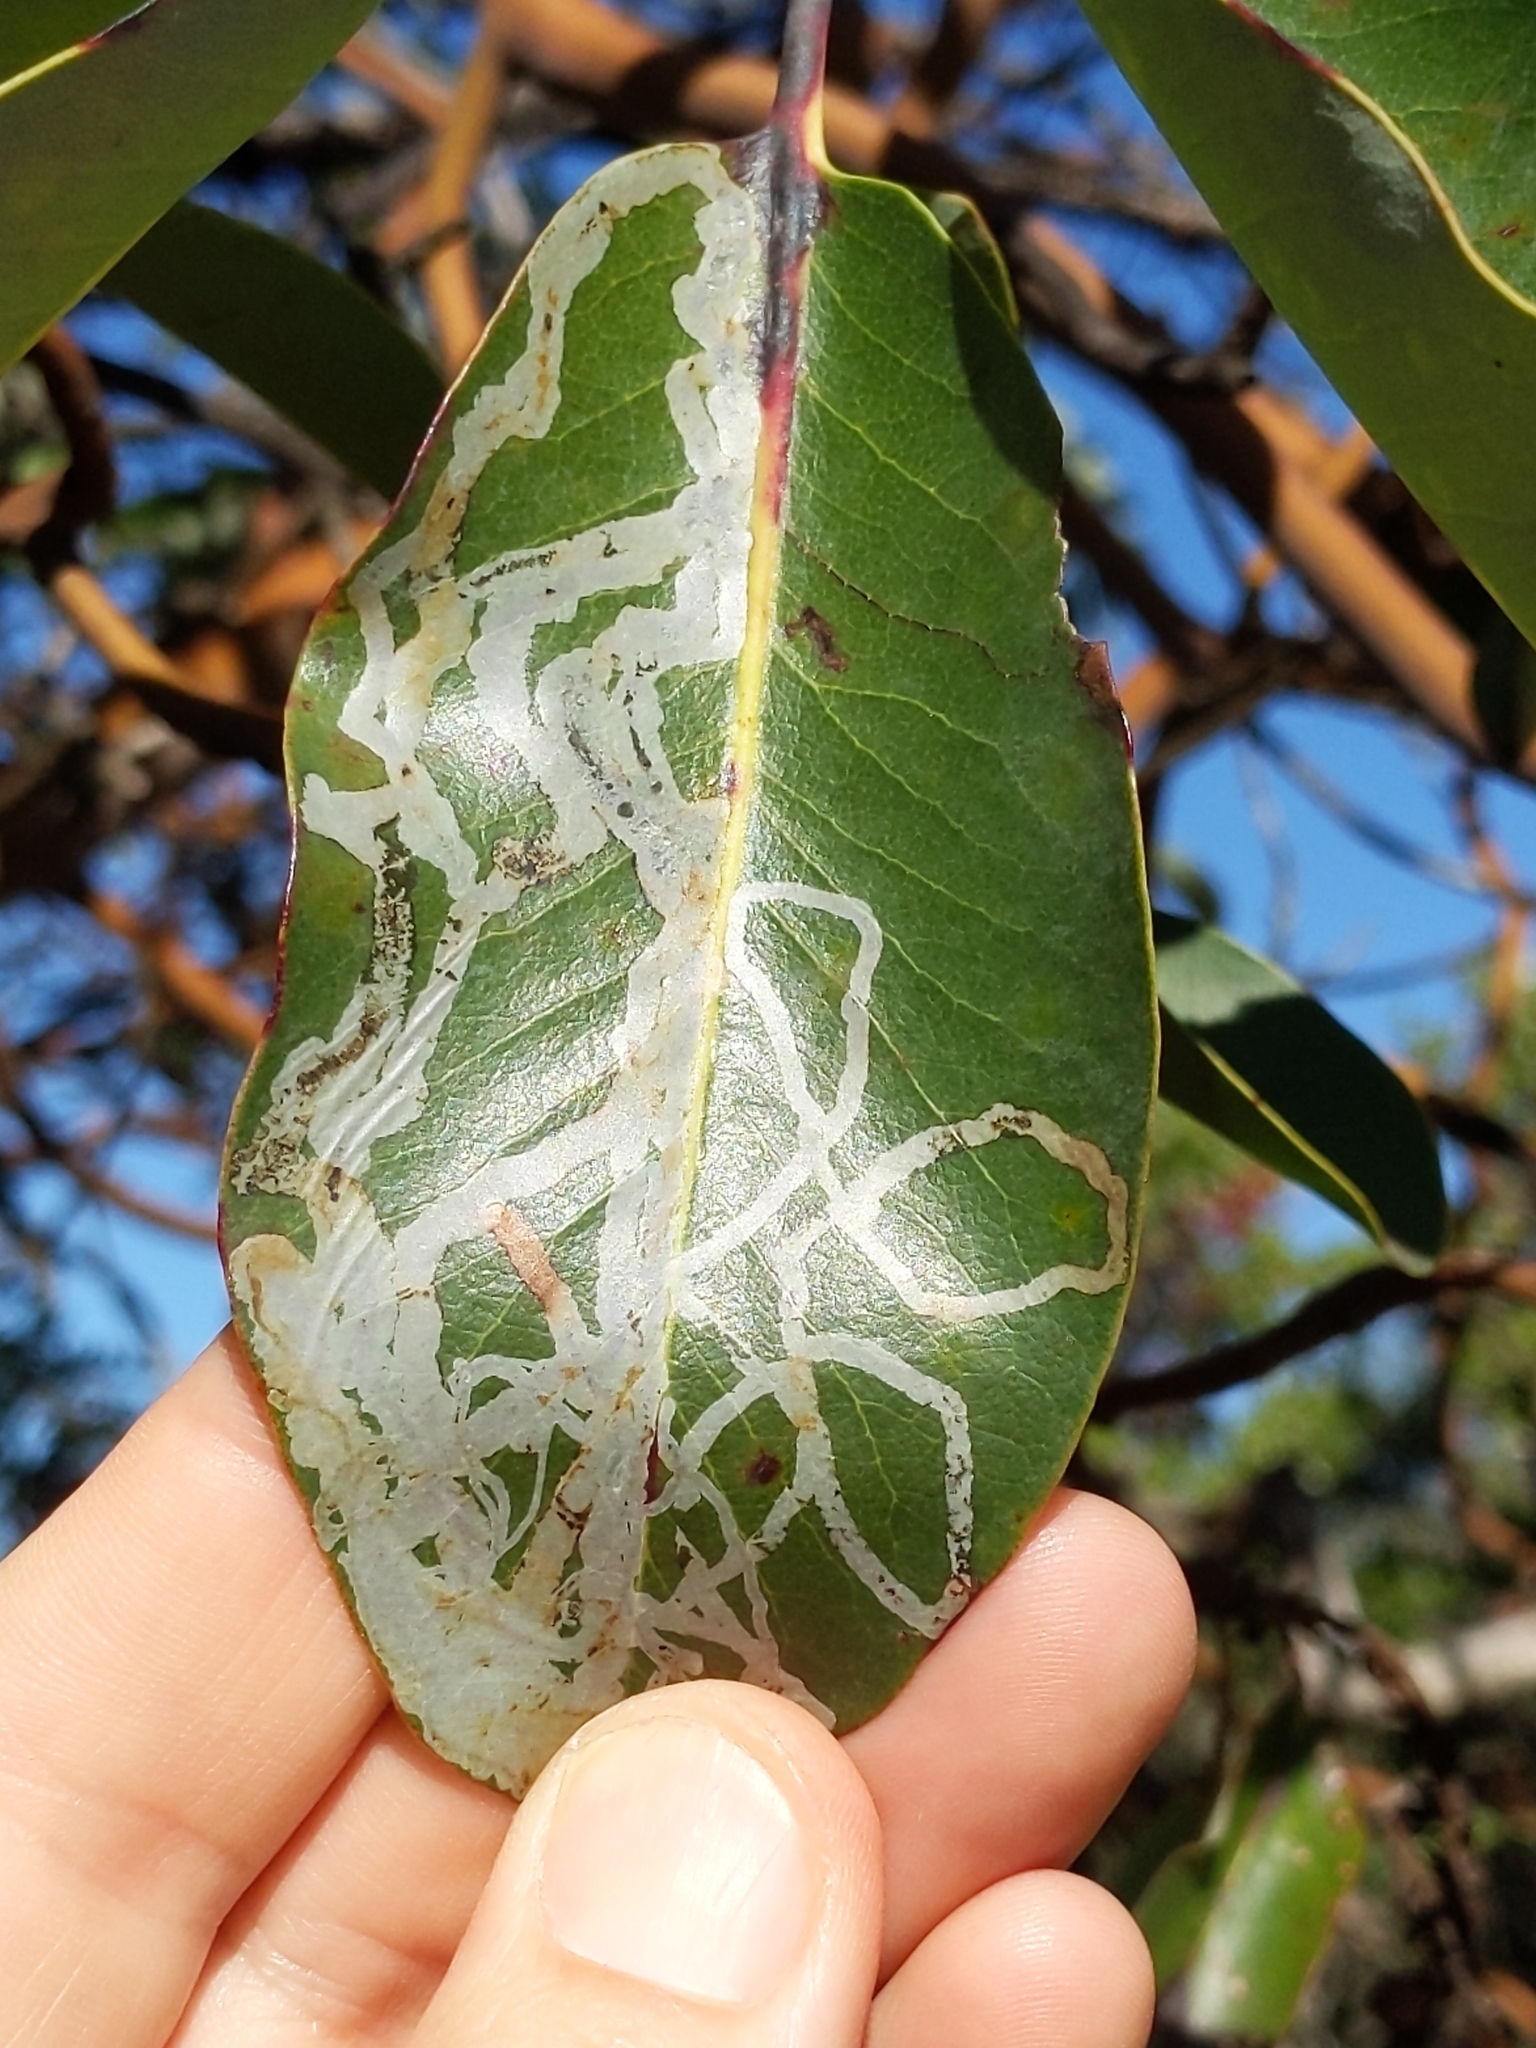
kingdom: Animalia
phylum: Arthropoda
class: Insecta
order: Lepidoptera
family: Gracillariidae
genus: Marmara
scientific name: Marmara arbutiella
